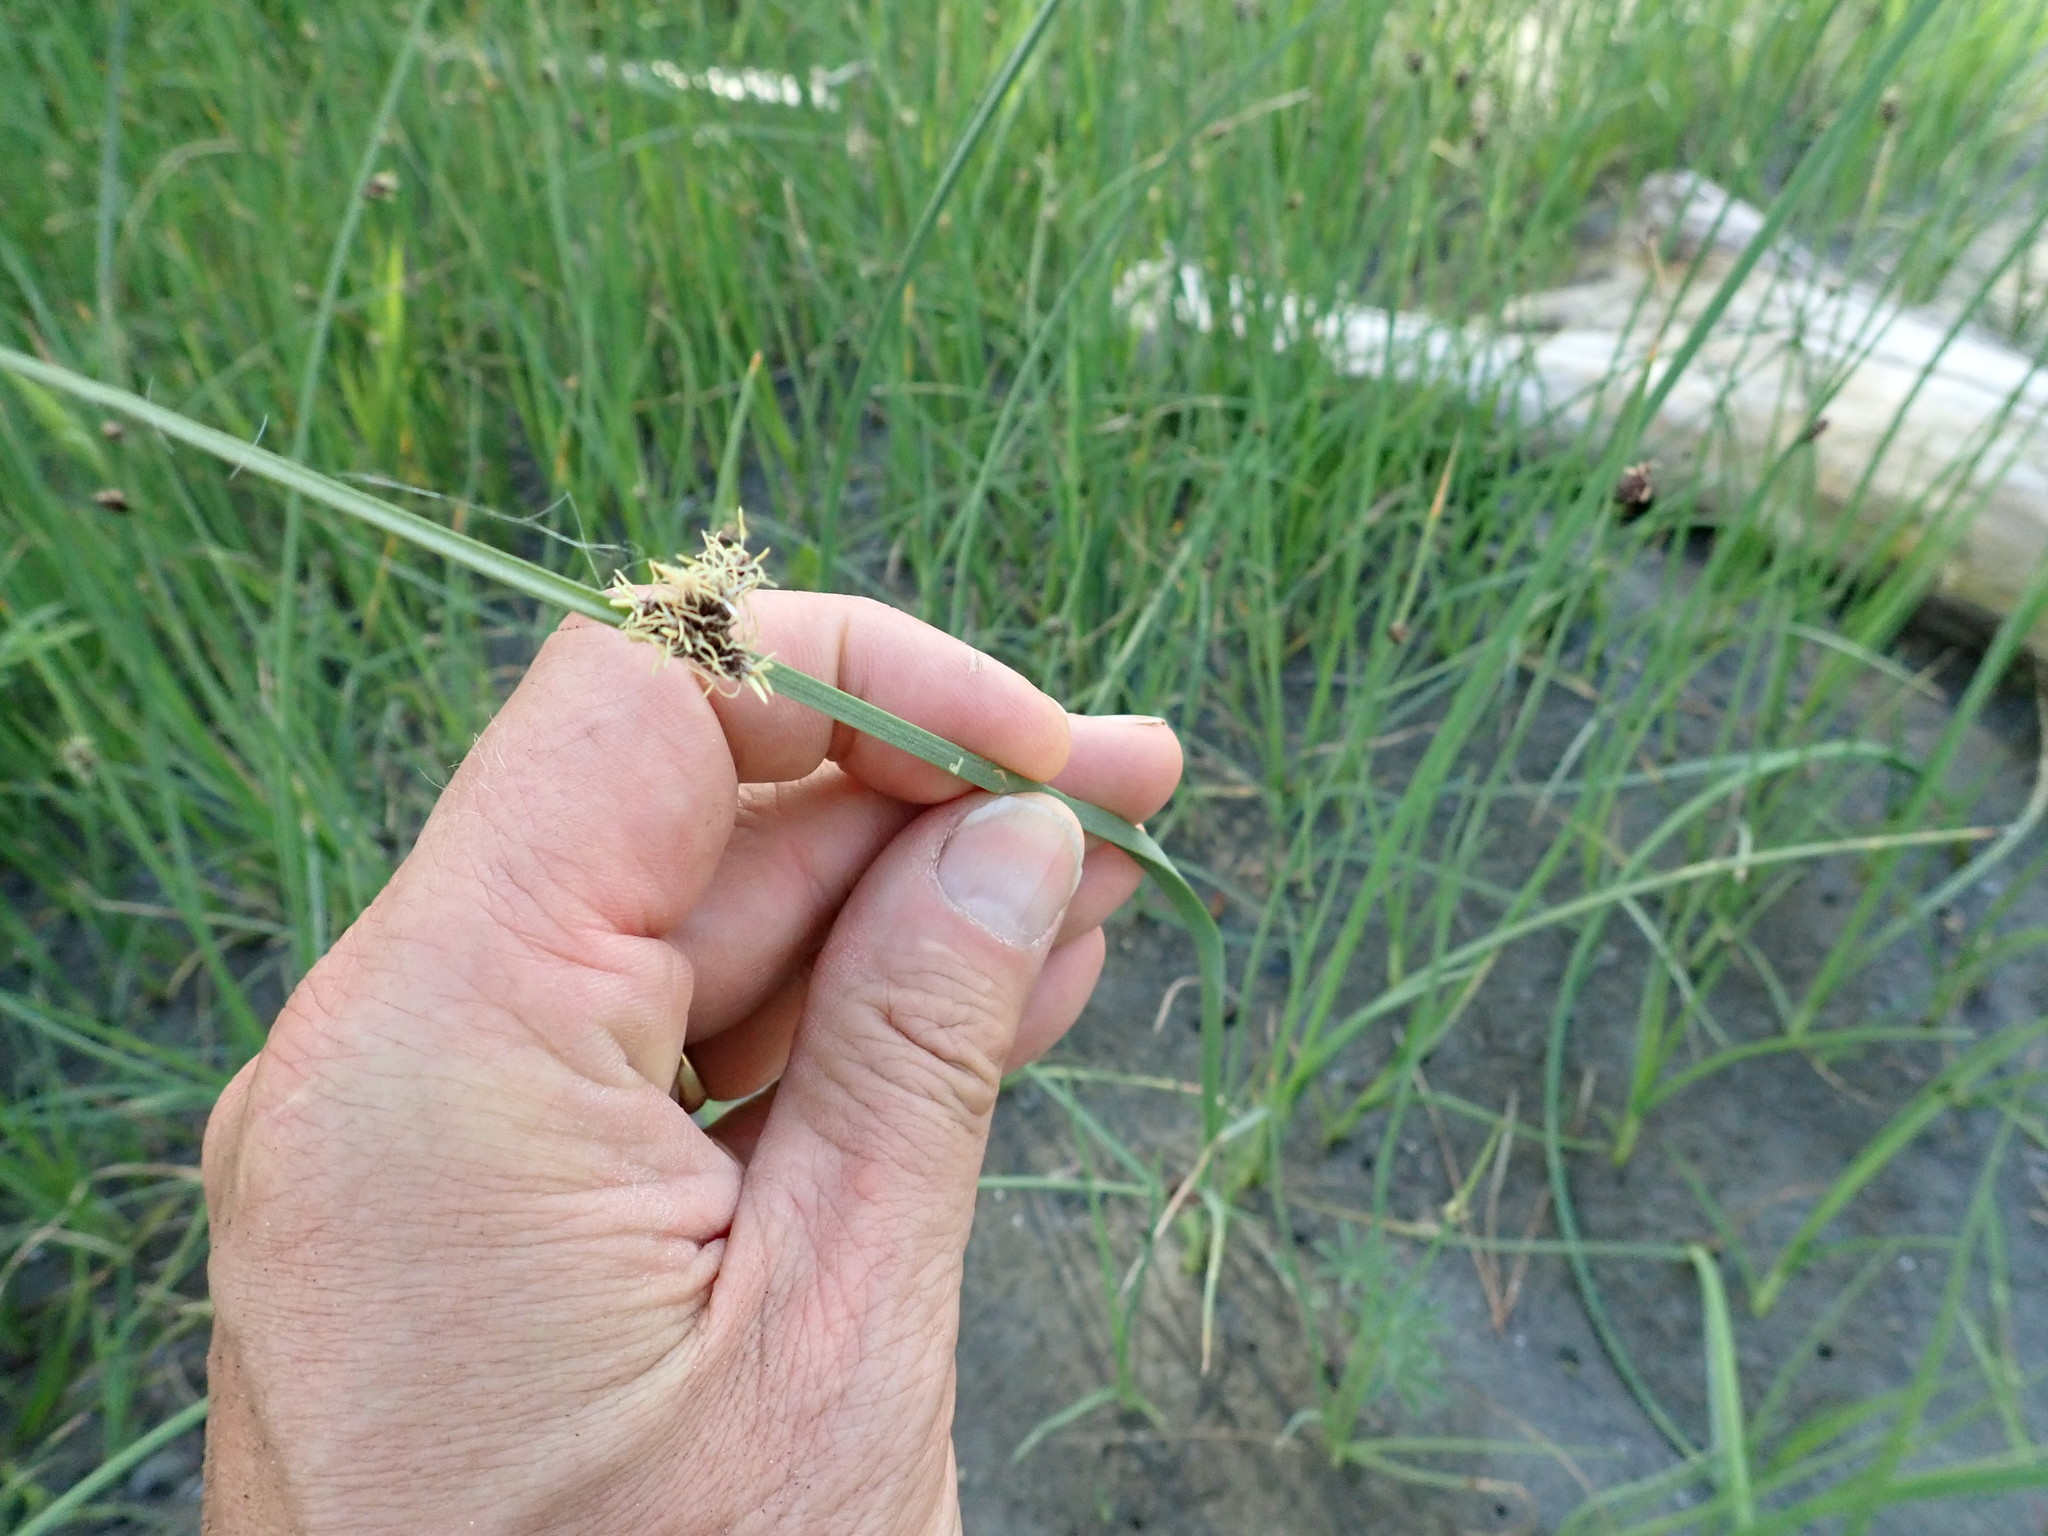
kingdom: Plantae
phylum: Tracheophyta
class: Liliopsida
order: Poales
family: Cyperaceae
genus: Schoenoplectus
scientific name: Schoenoplectus pungens
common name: Sharp club-rush
